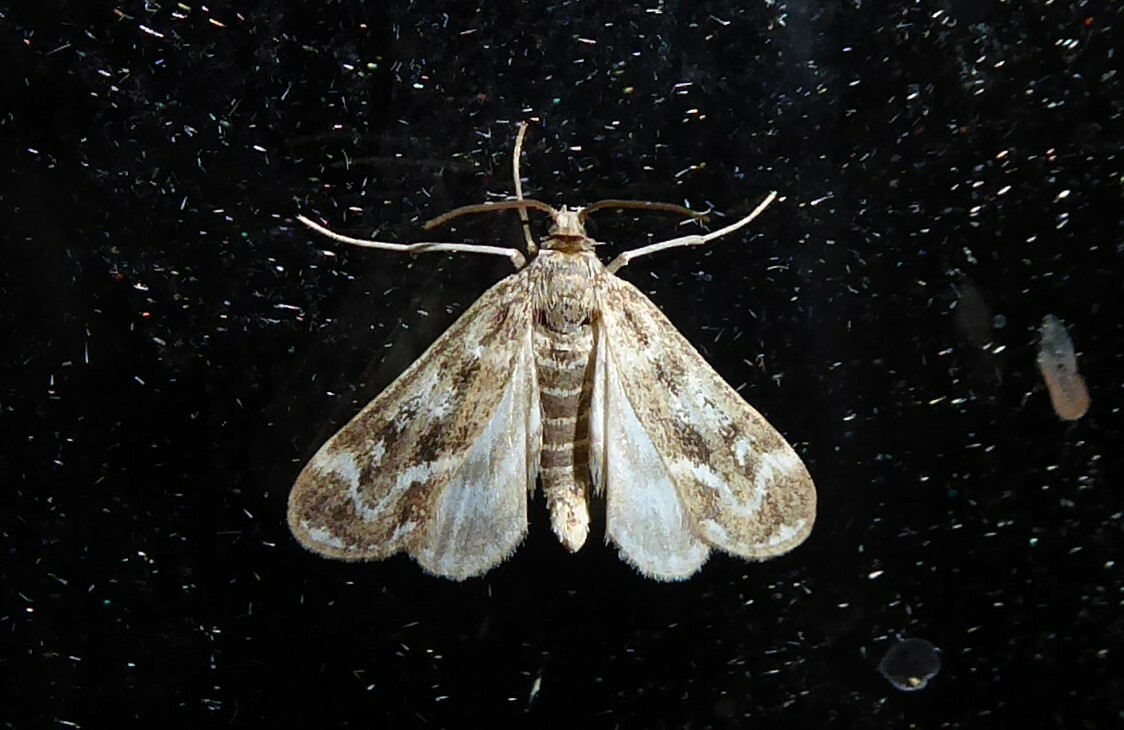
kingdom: Animalia
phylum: Arthropoda
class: Insecta
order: Lepidoptera
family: Crambidae
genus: Hygraula
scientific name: Hygraula nitens
